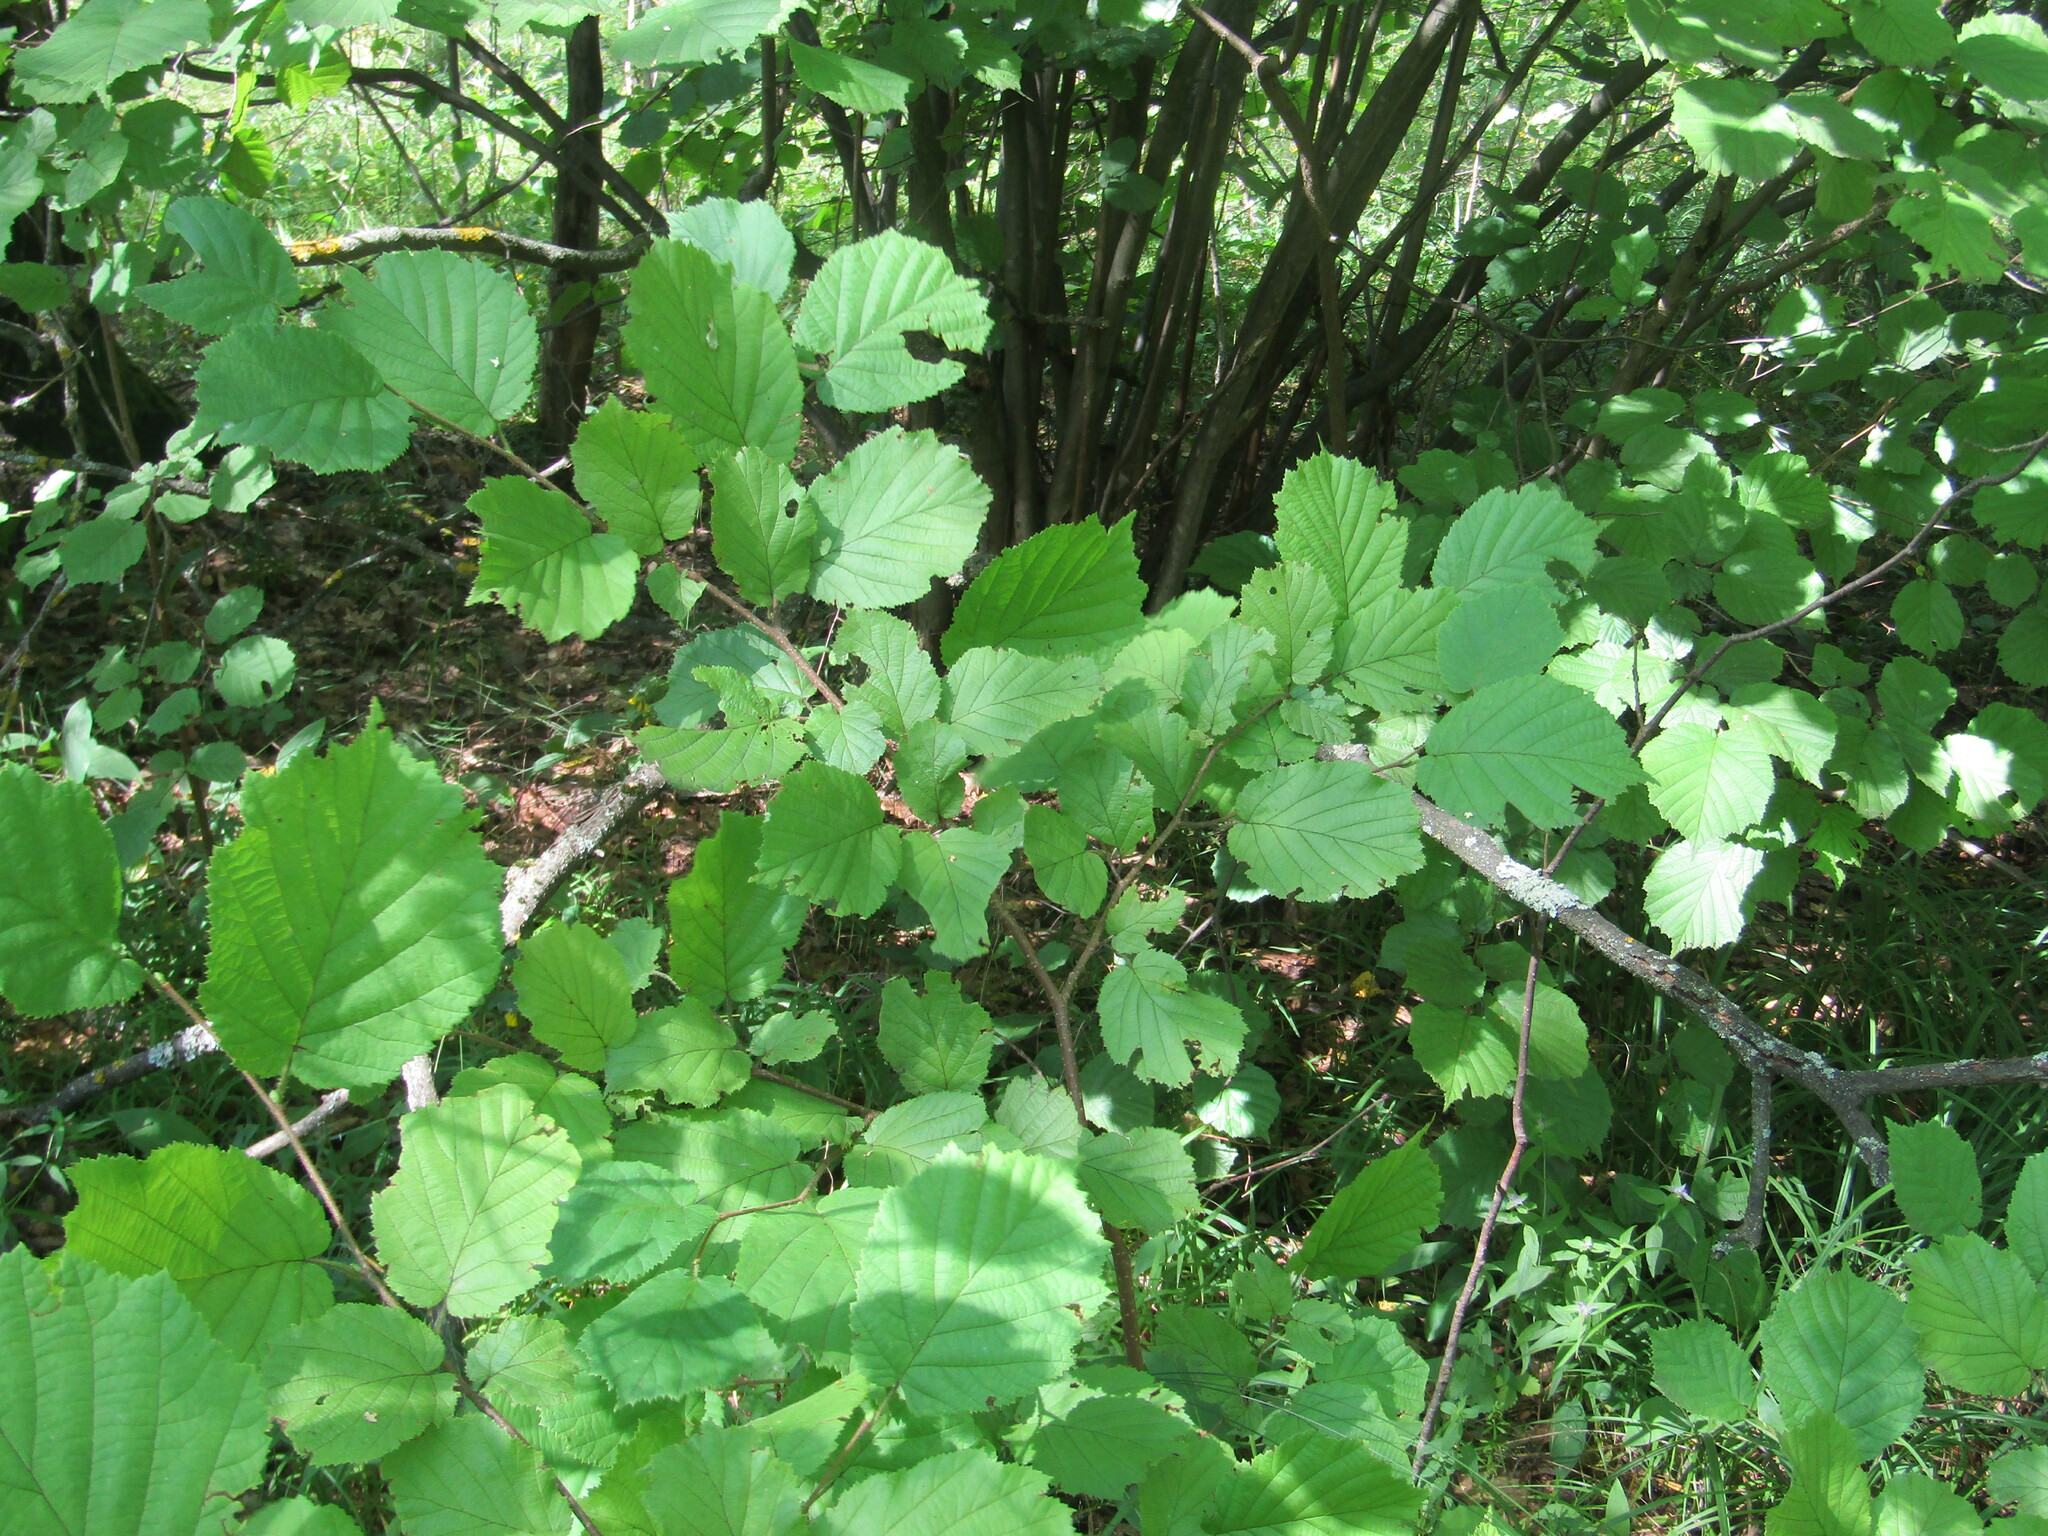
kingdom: Plantae
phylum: Tracheophyta
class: Magnoliopsida
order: Fagales
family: Betulaceae
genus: Corylus
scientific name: Corylus avellana
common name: European hazel
